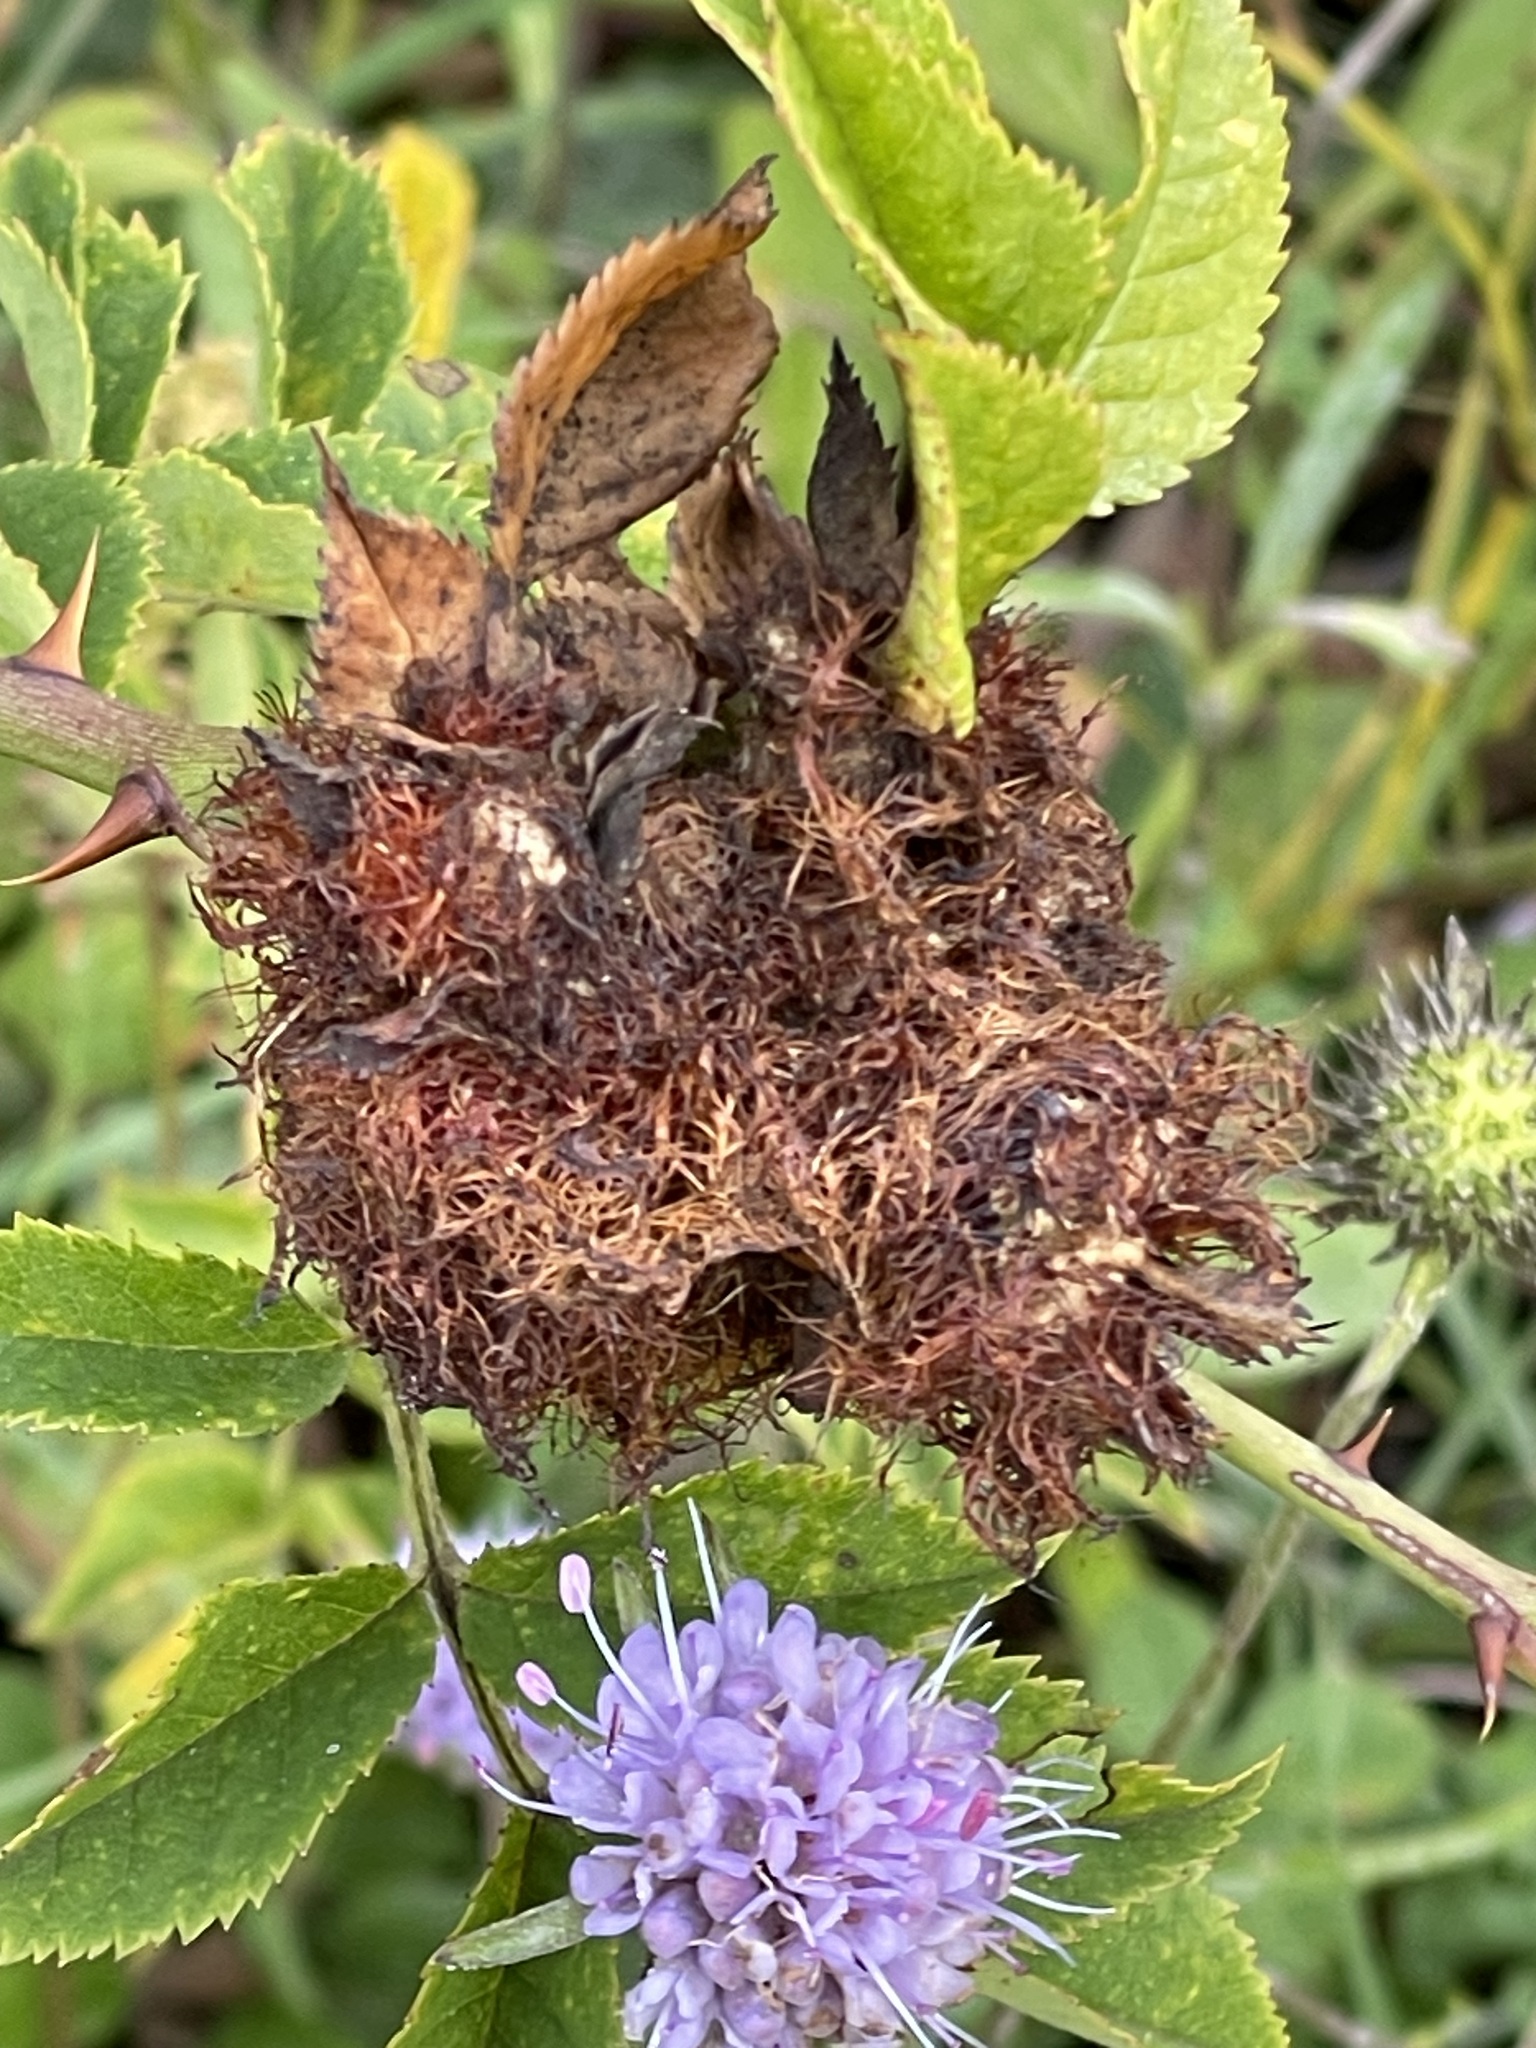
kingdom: Animalia
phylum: Arthropoda
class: Insecta
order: Hymenoptera
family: Cynipidae
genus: Diplolepis
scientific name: Diplolepis rosae
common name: Bedeguar gall
